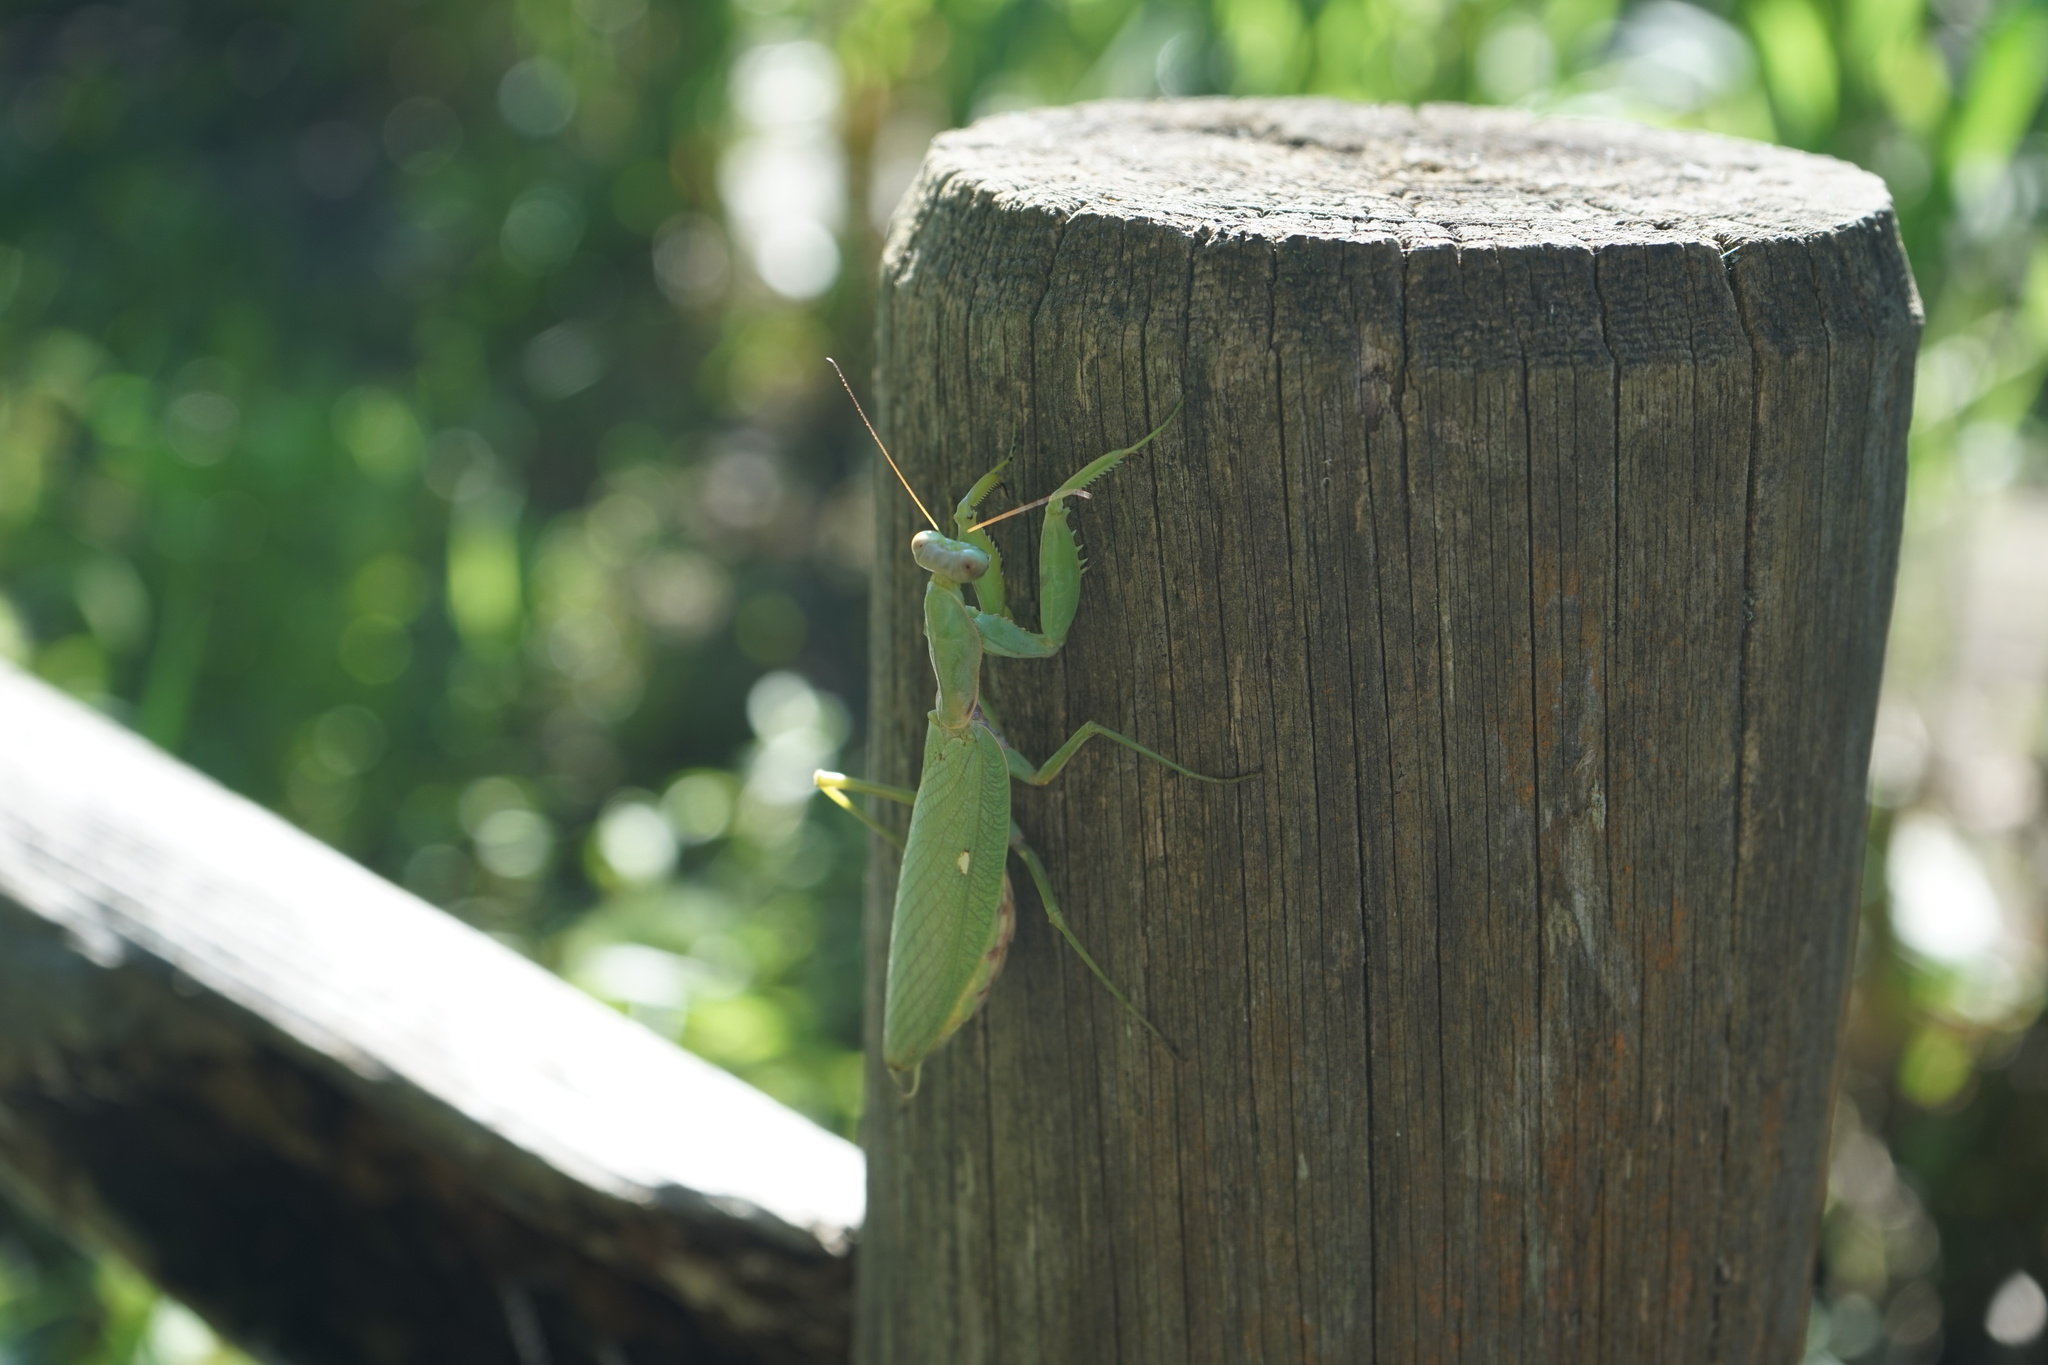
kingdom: Animalia
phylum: Arthropoda
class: Insecta
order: Mantodea
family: Mantidae
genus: Hierodula
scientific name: Hierodula patellifera
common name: Asian mantis
